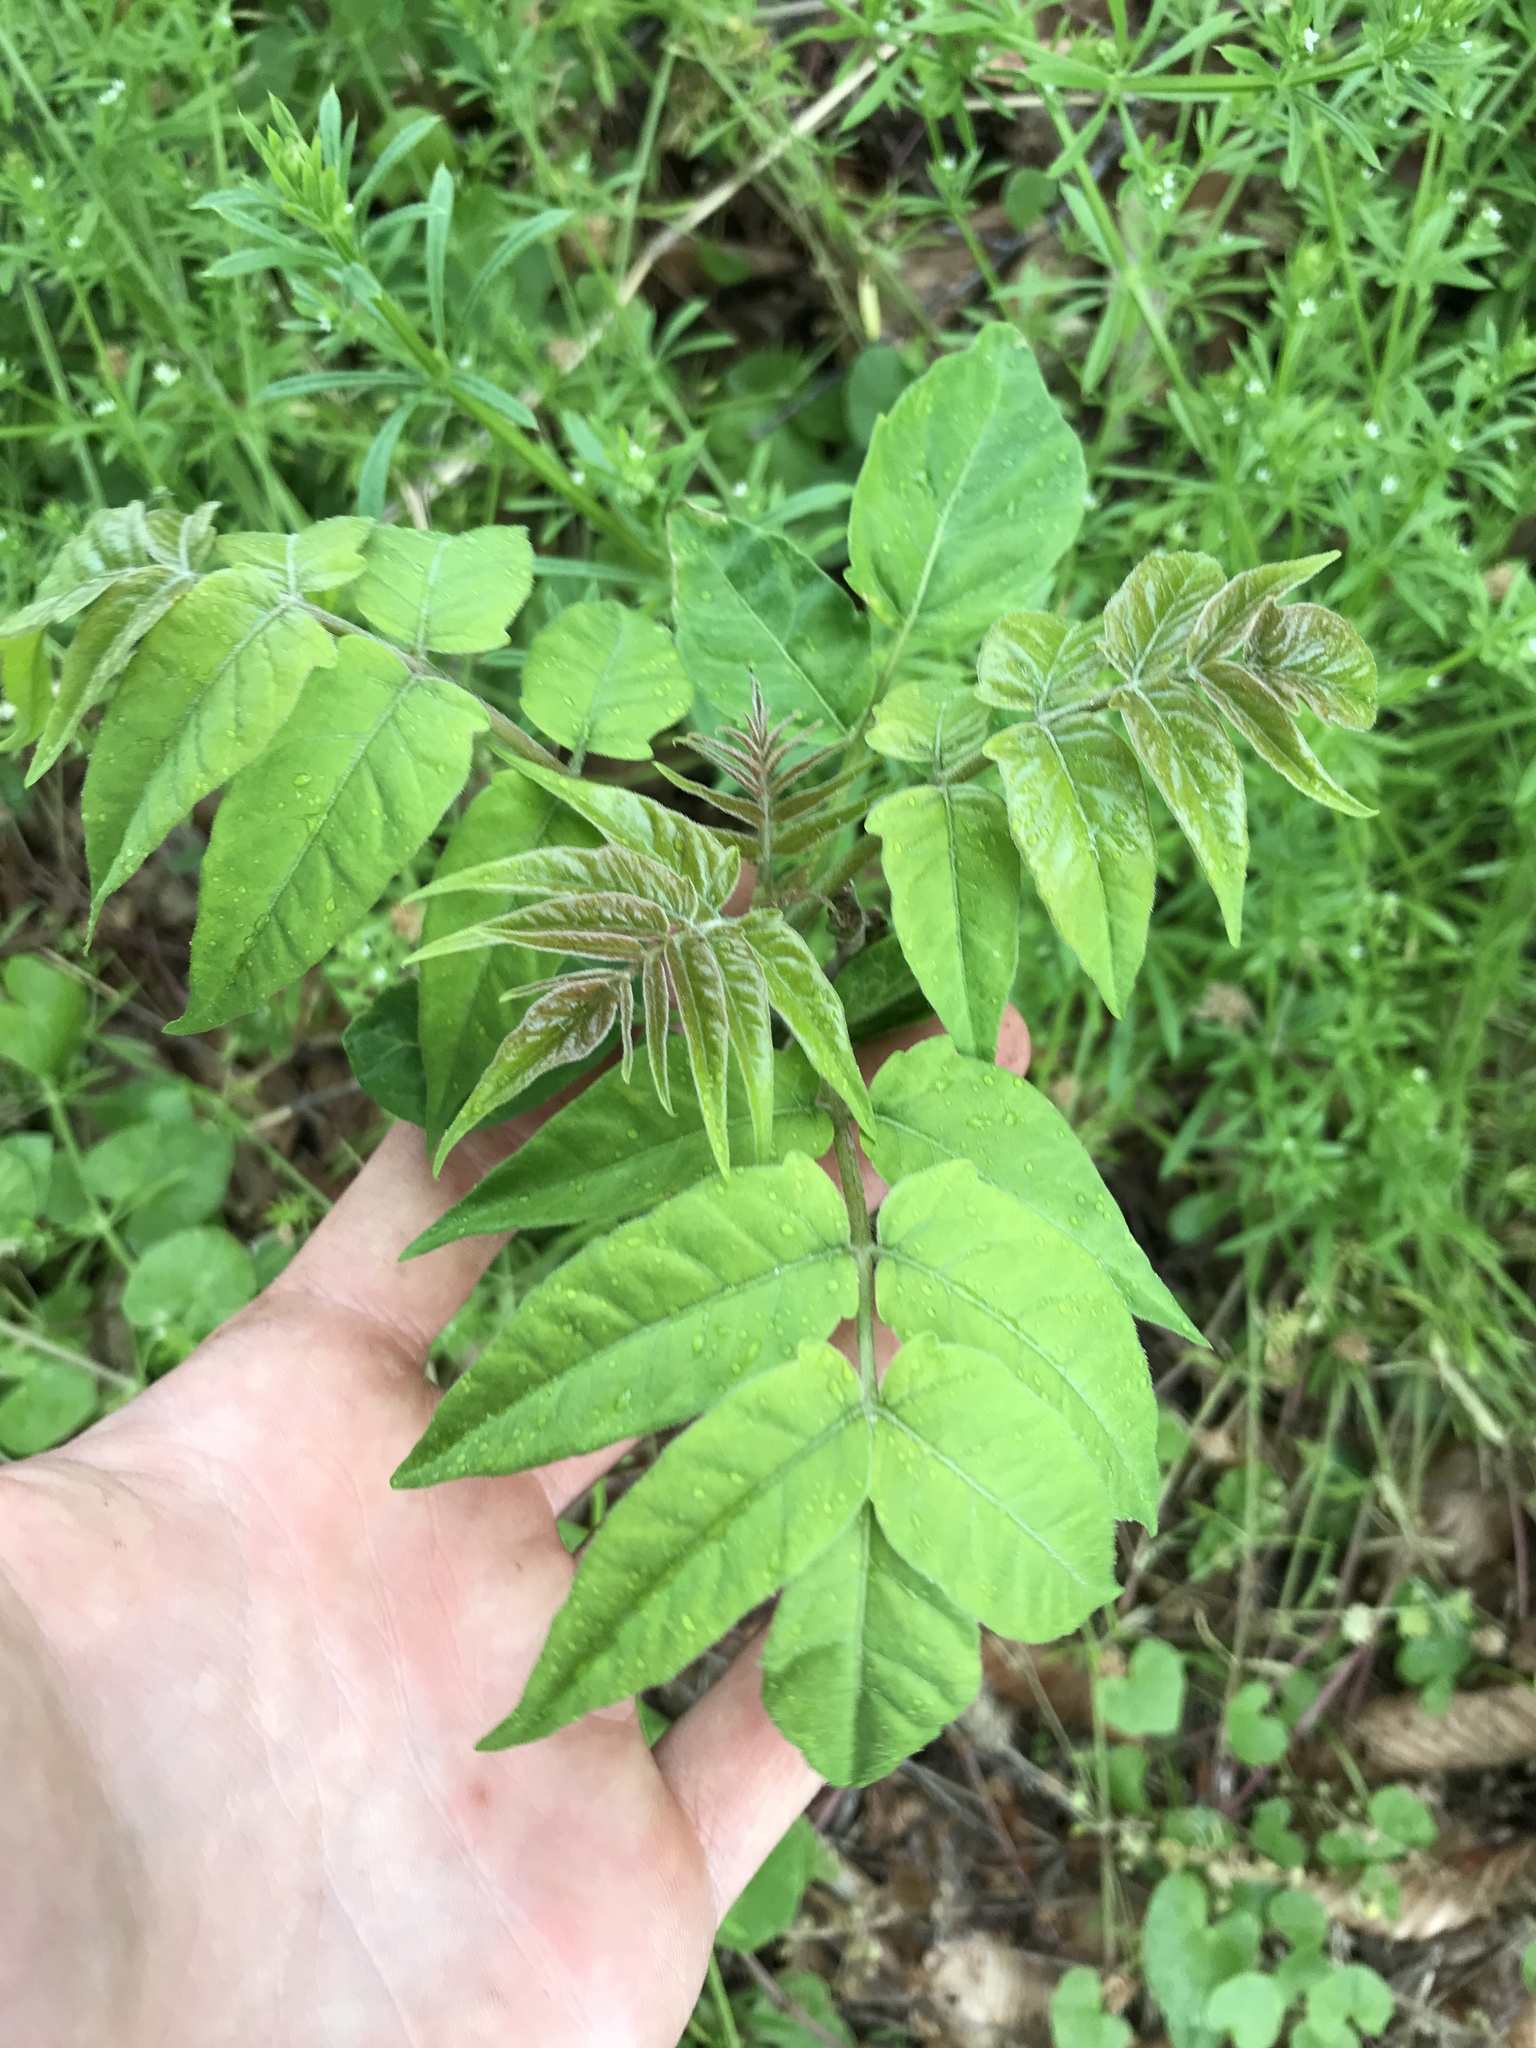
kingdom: Plantae
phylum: Tracheophyta
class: Magnoliopsida
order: Sapindales
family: Simaroubaceae
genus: Ailanthus
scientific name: Ailanthus altissima
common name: Tree-of-heaven
